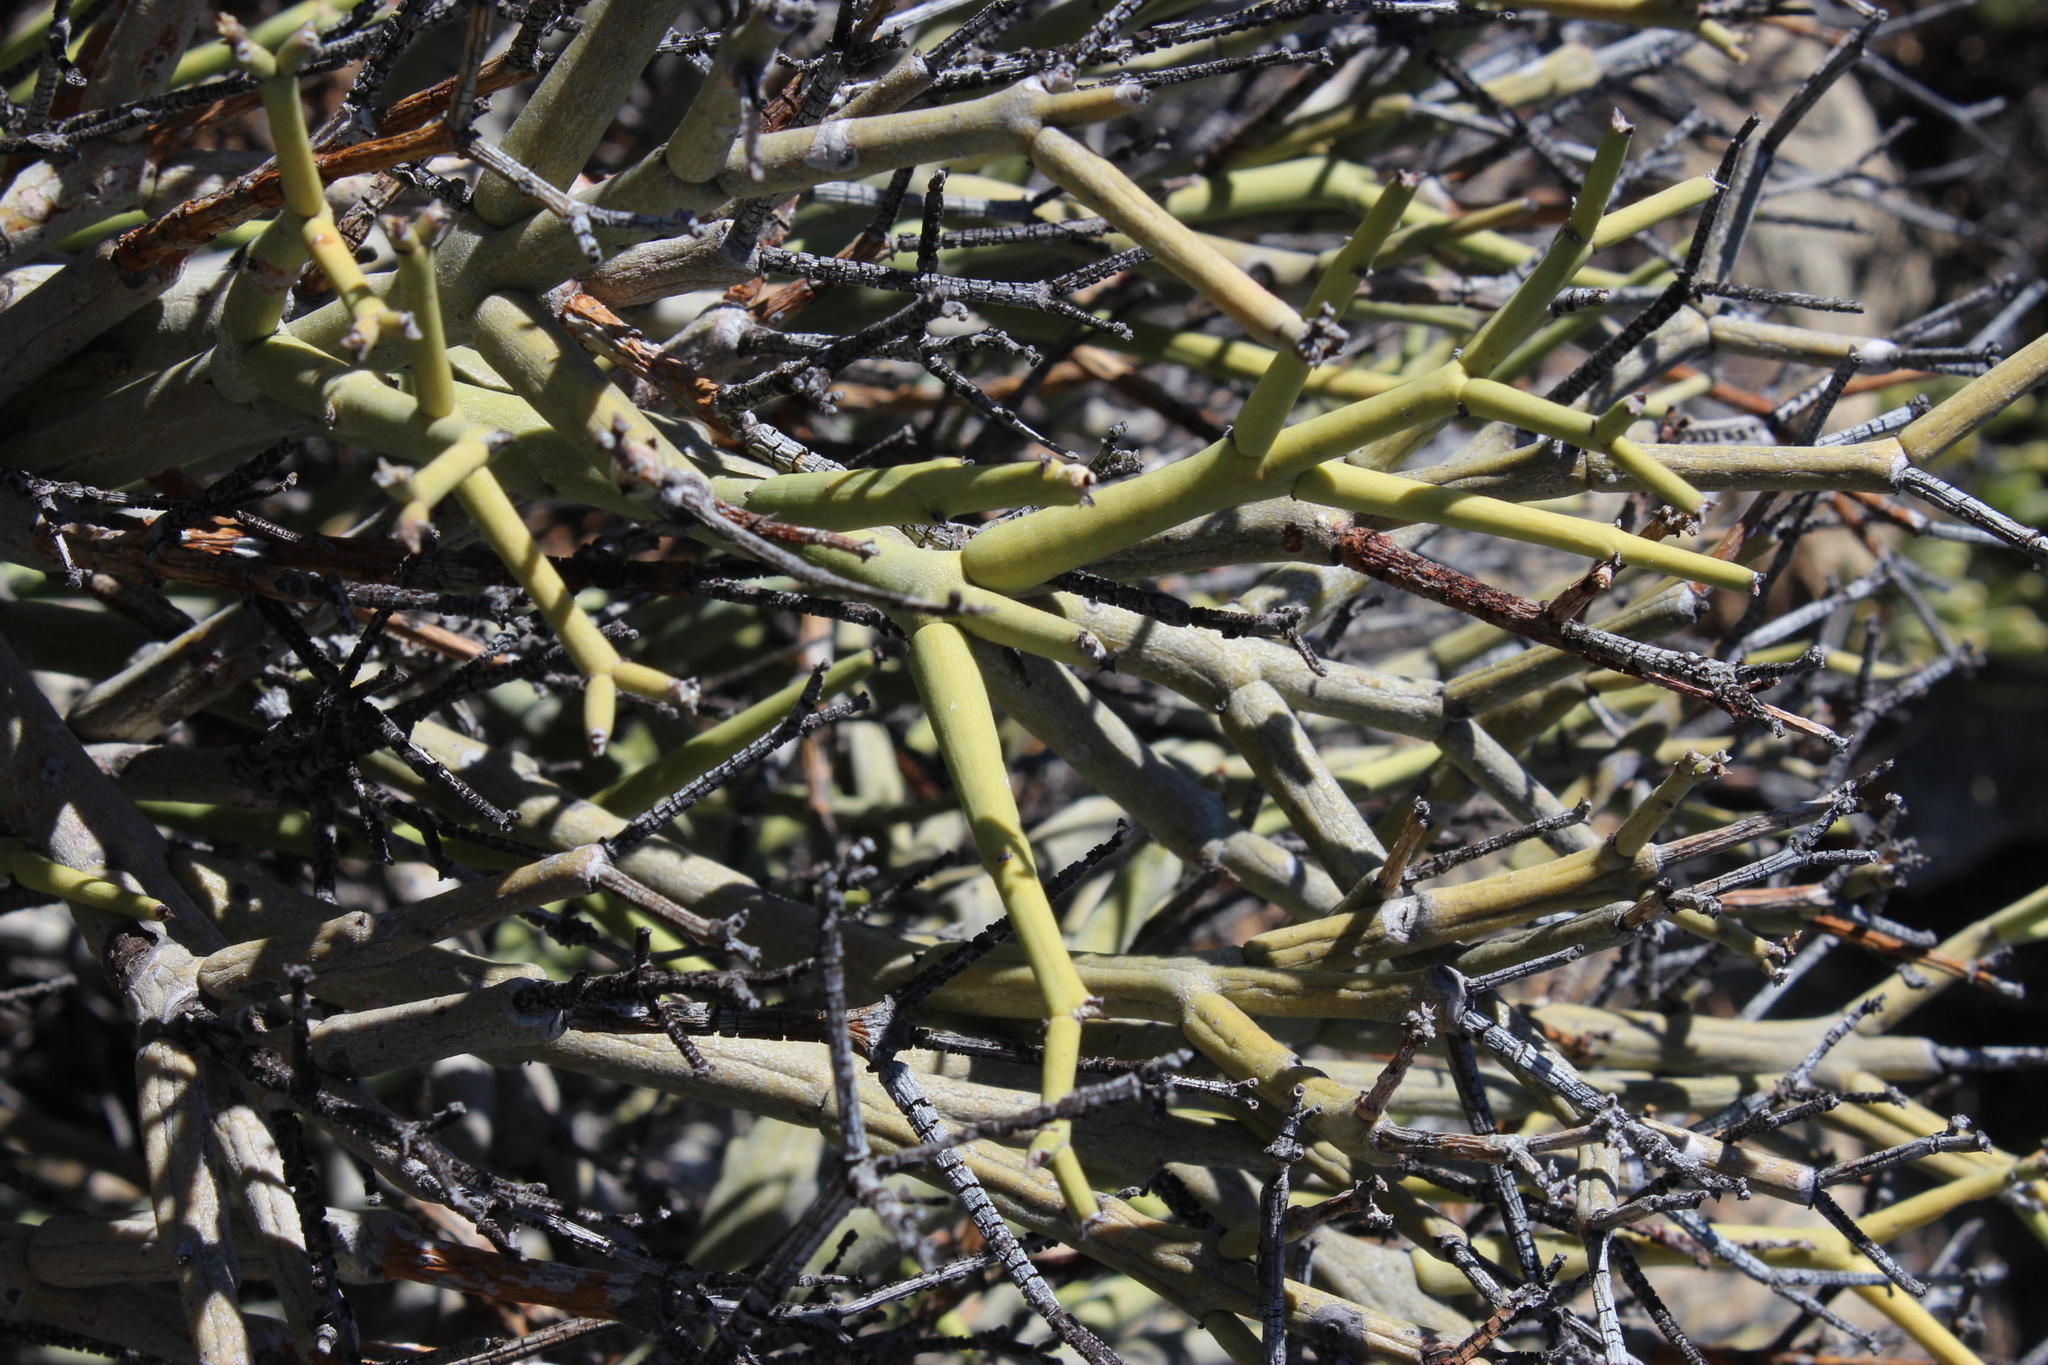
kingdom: Plantae
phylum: Tracheophyta
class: Magnoliopsida
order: Malpighiales
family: Euphorbiaceae
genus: Euphorbia
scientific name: Euphorbia rhombifolia
